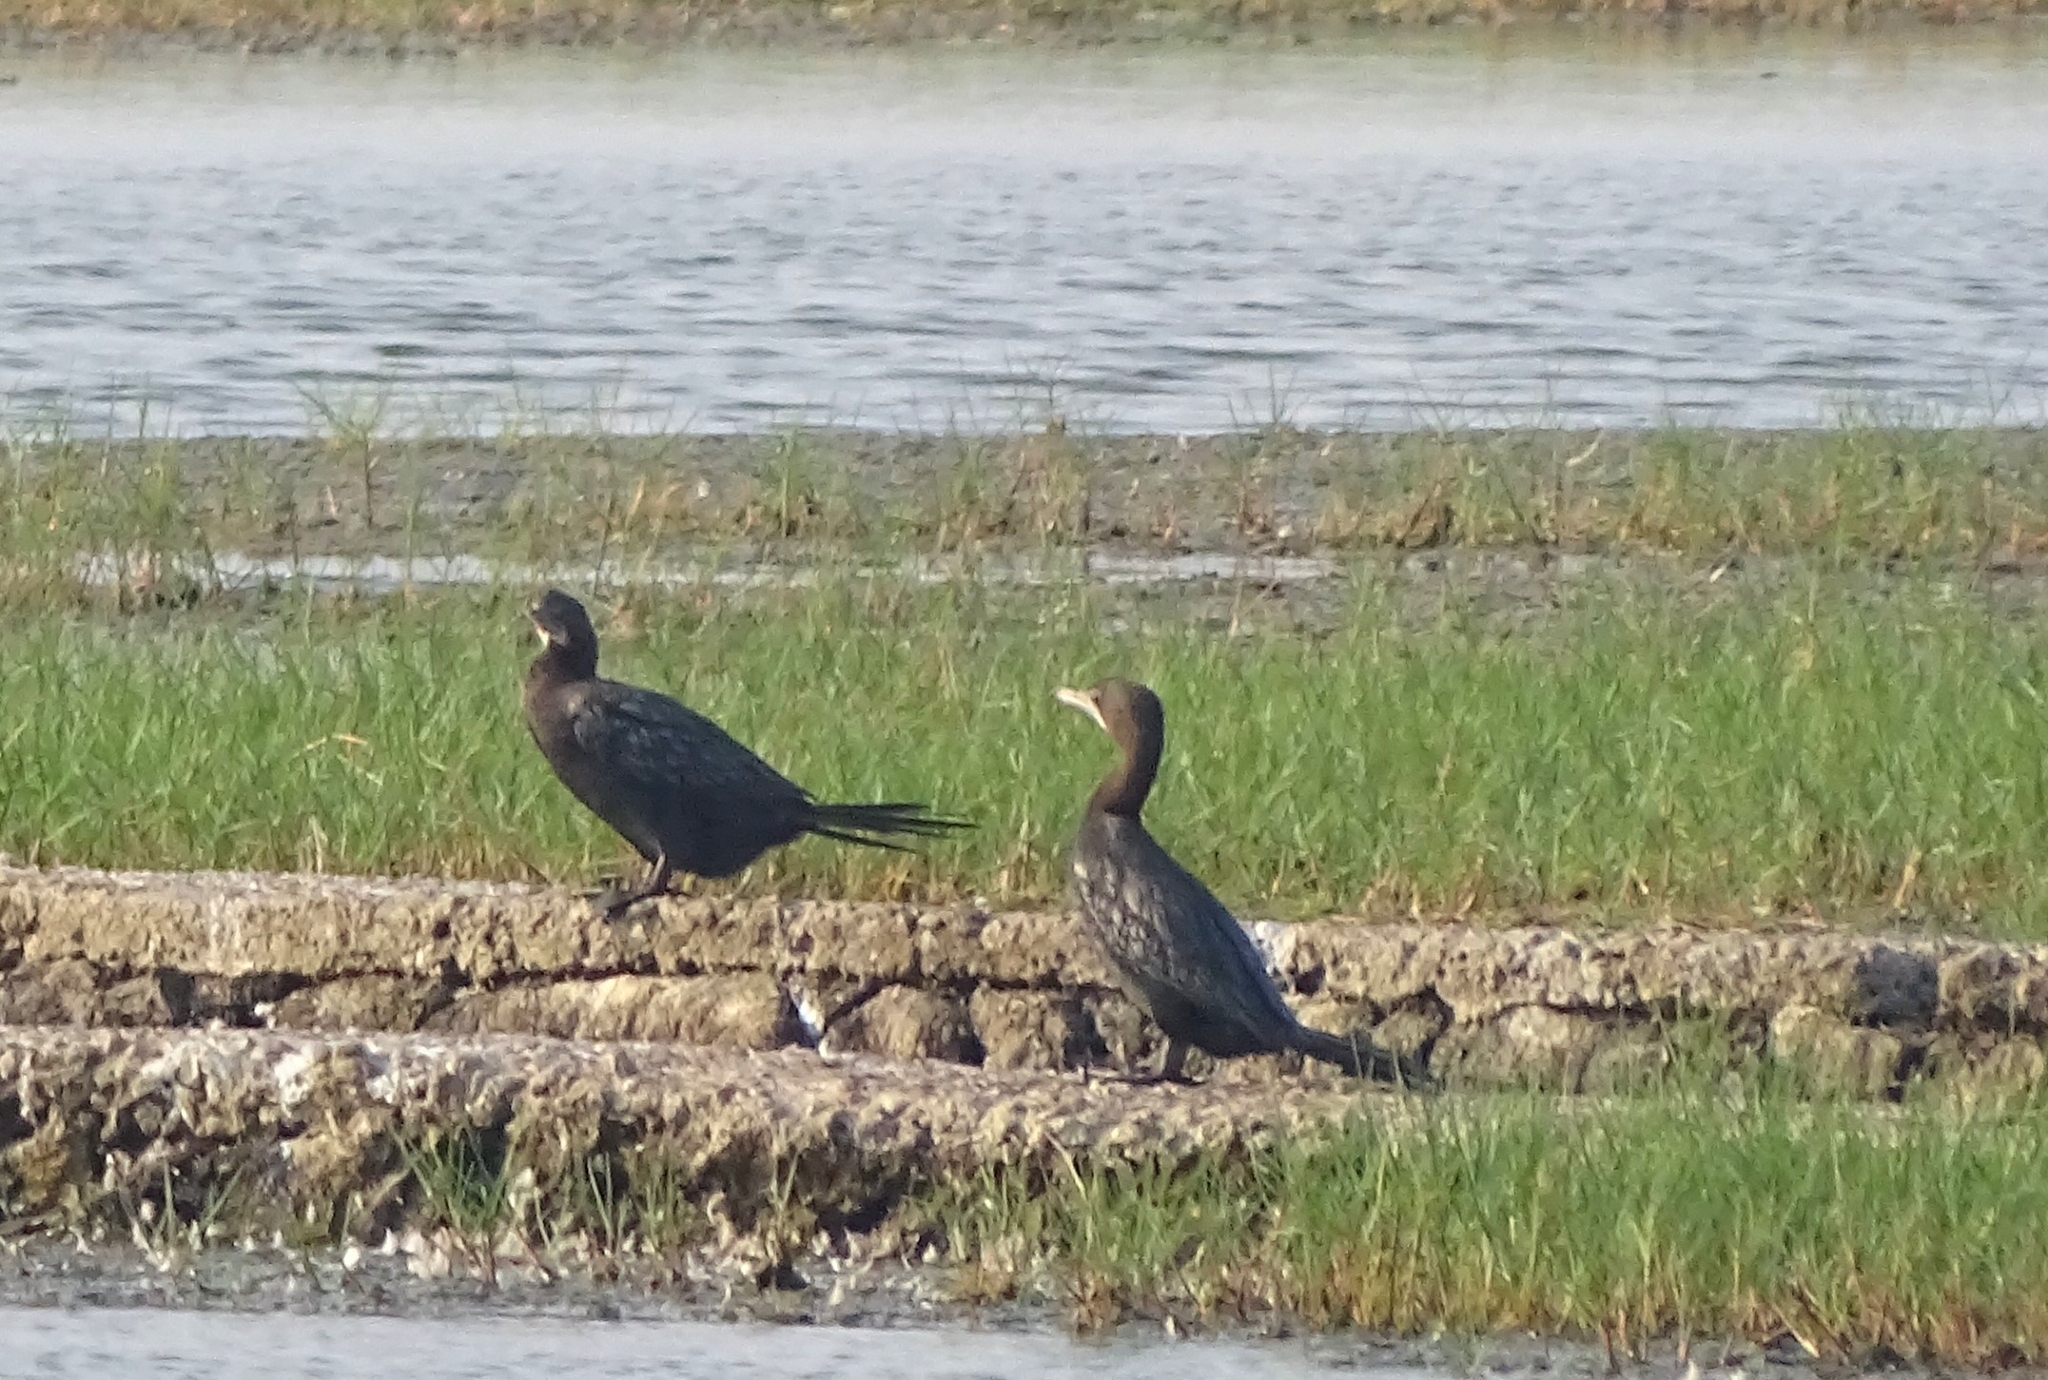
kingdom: Animalia
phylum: Chordata
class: Aves
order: Suliformes
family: Phalacrocoracidae
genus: Microcarbo
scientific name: Microcarbo niger
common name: Little cormorant
